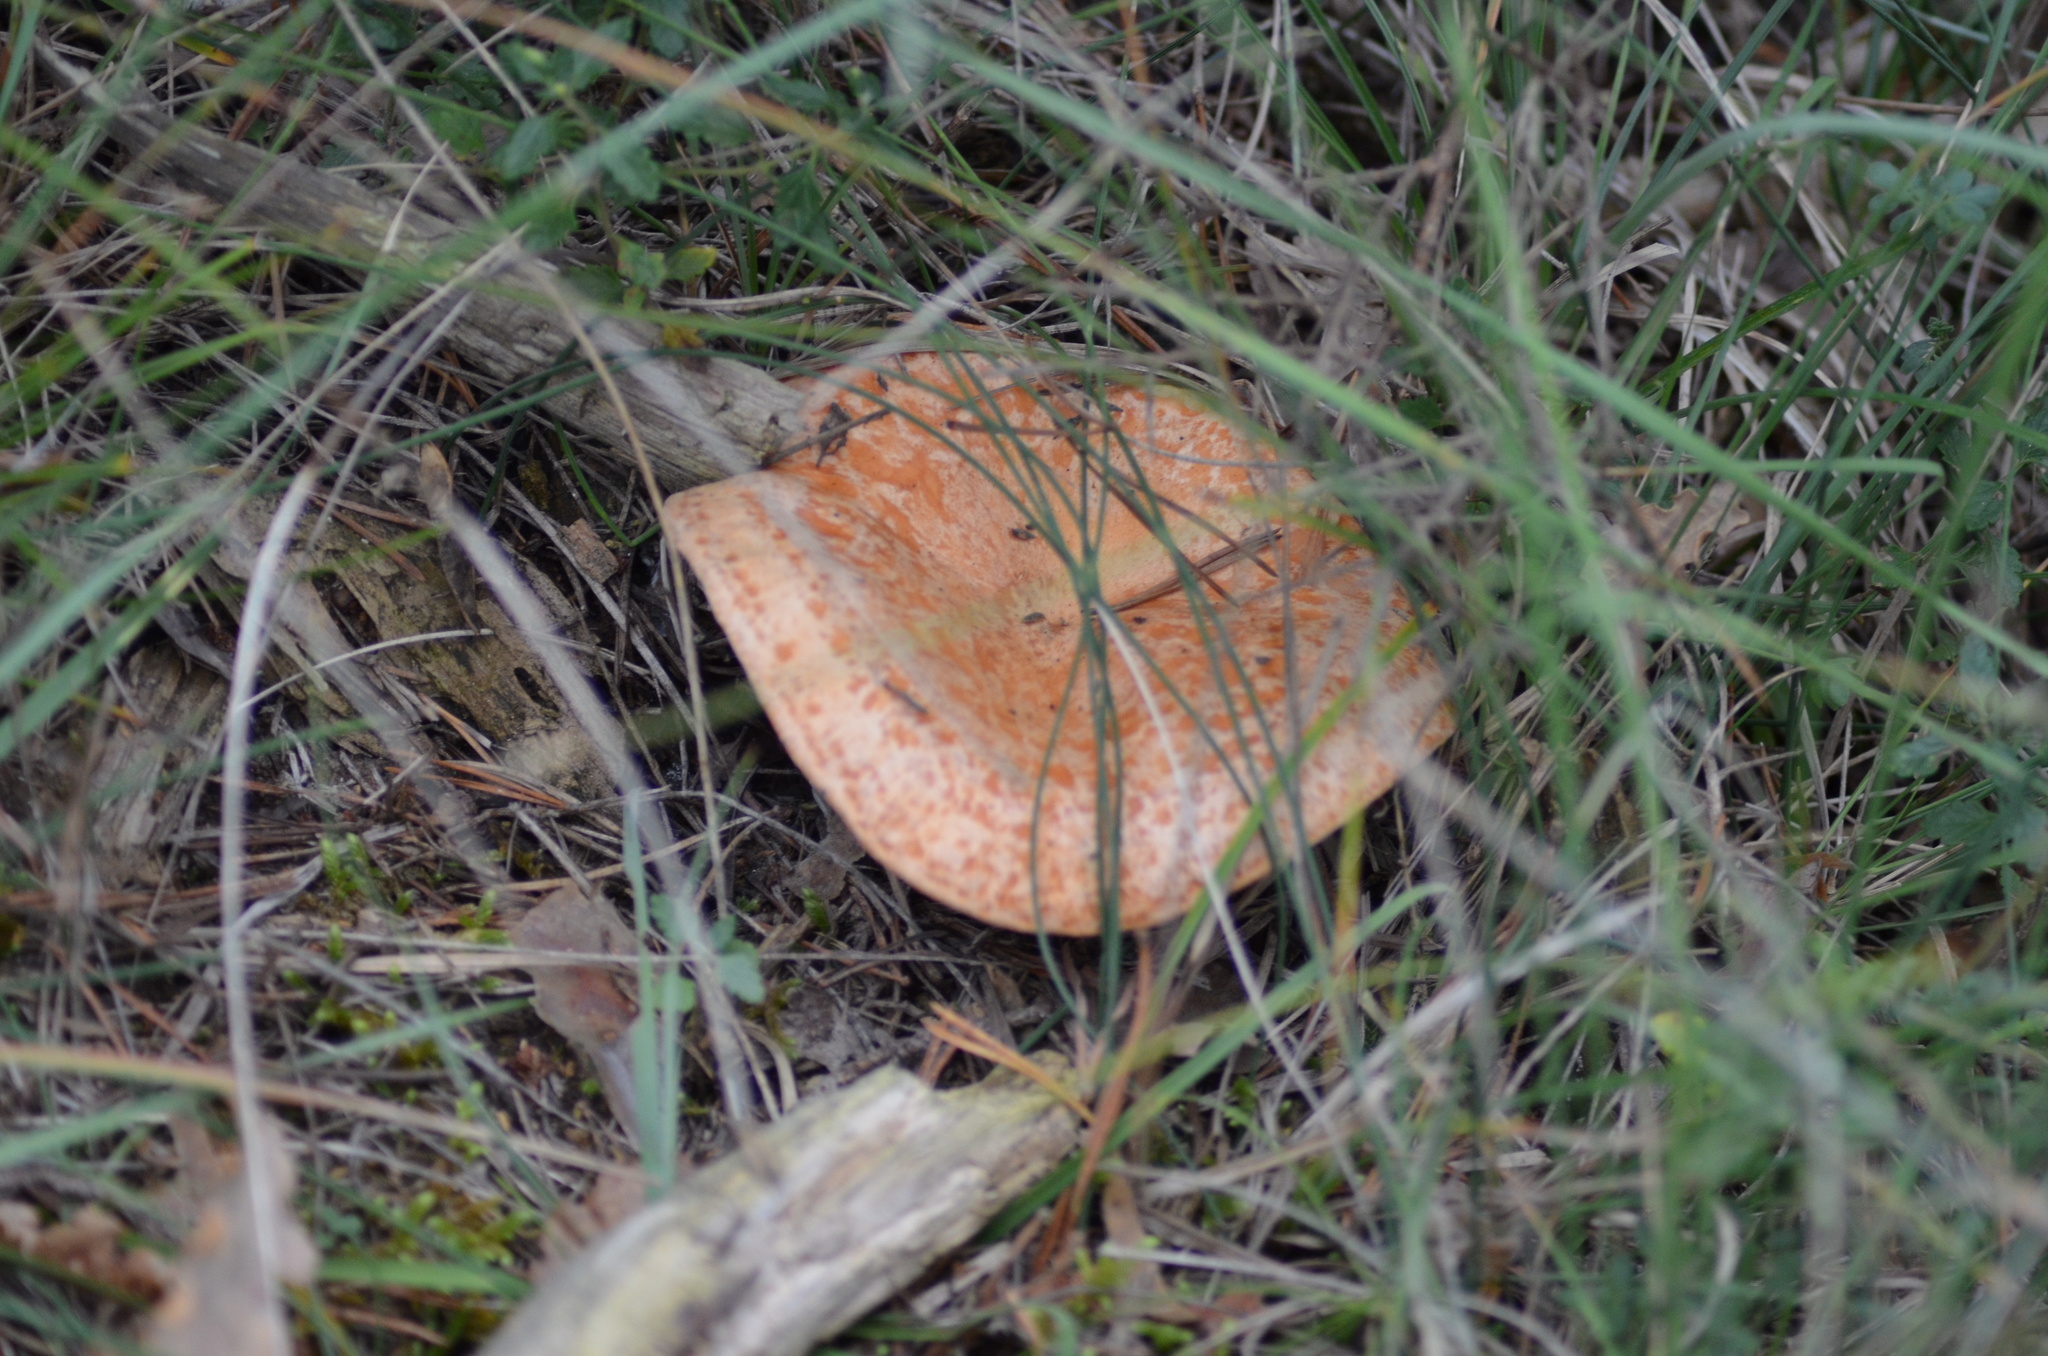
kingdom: Fungi
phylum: Basidiomycota
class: Agaricomycetes
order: Russulales
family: Russulaceae
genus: Lactarius
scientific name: Lactarius deliciosus
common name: Saffron milk-cap
